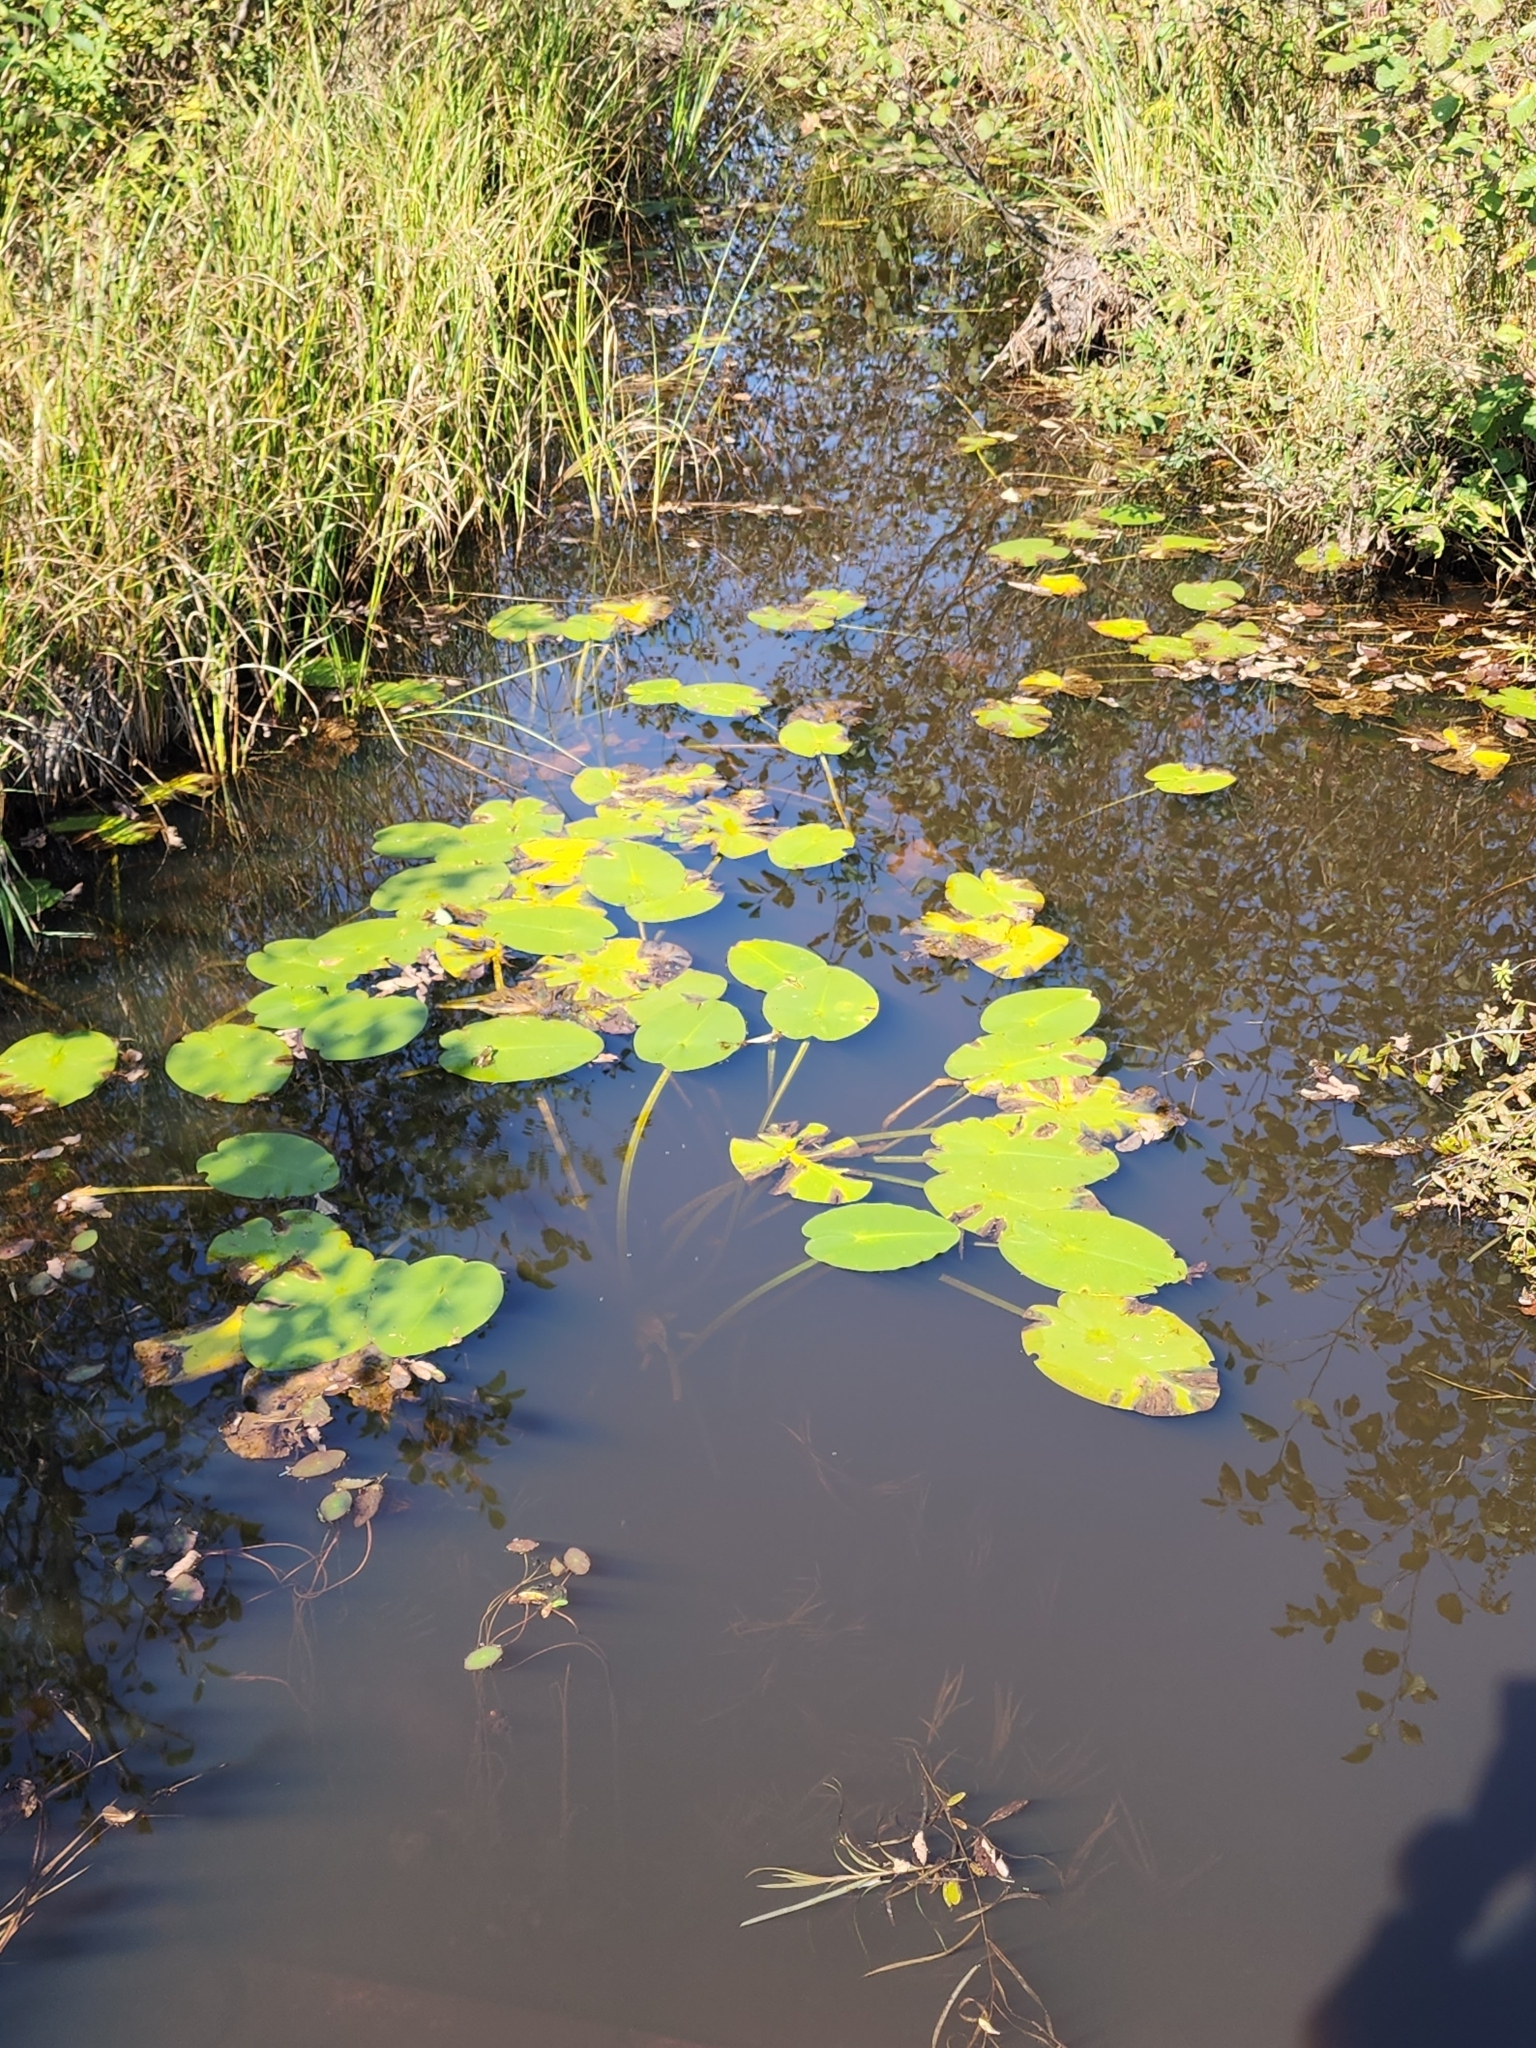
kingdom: Plantae
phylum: Tracheophyta
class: Magnoliopsida
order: Nymphaeales
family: Nymphaeaceae
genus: Nuphar
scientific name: Nuphar variegata
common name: Beaver-root
